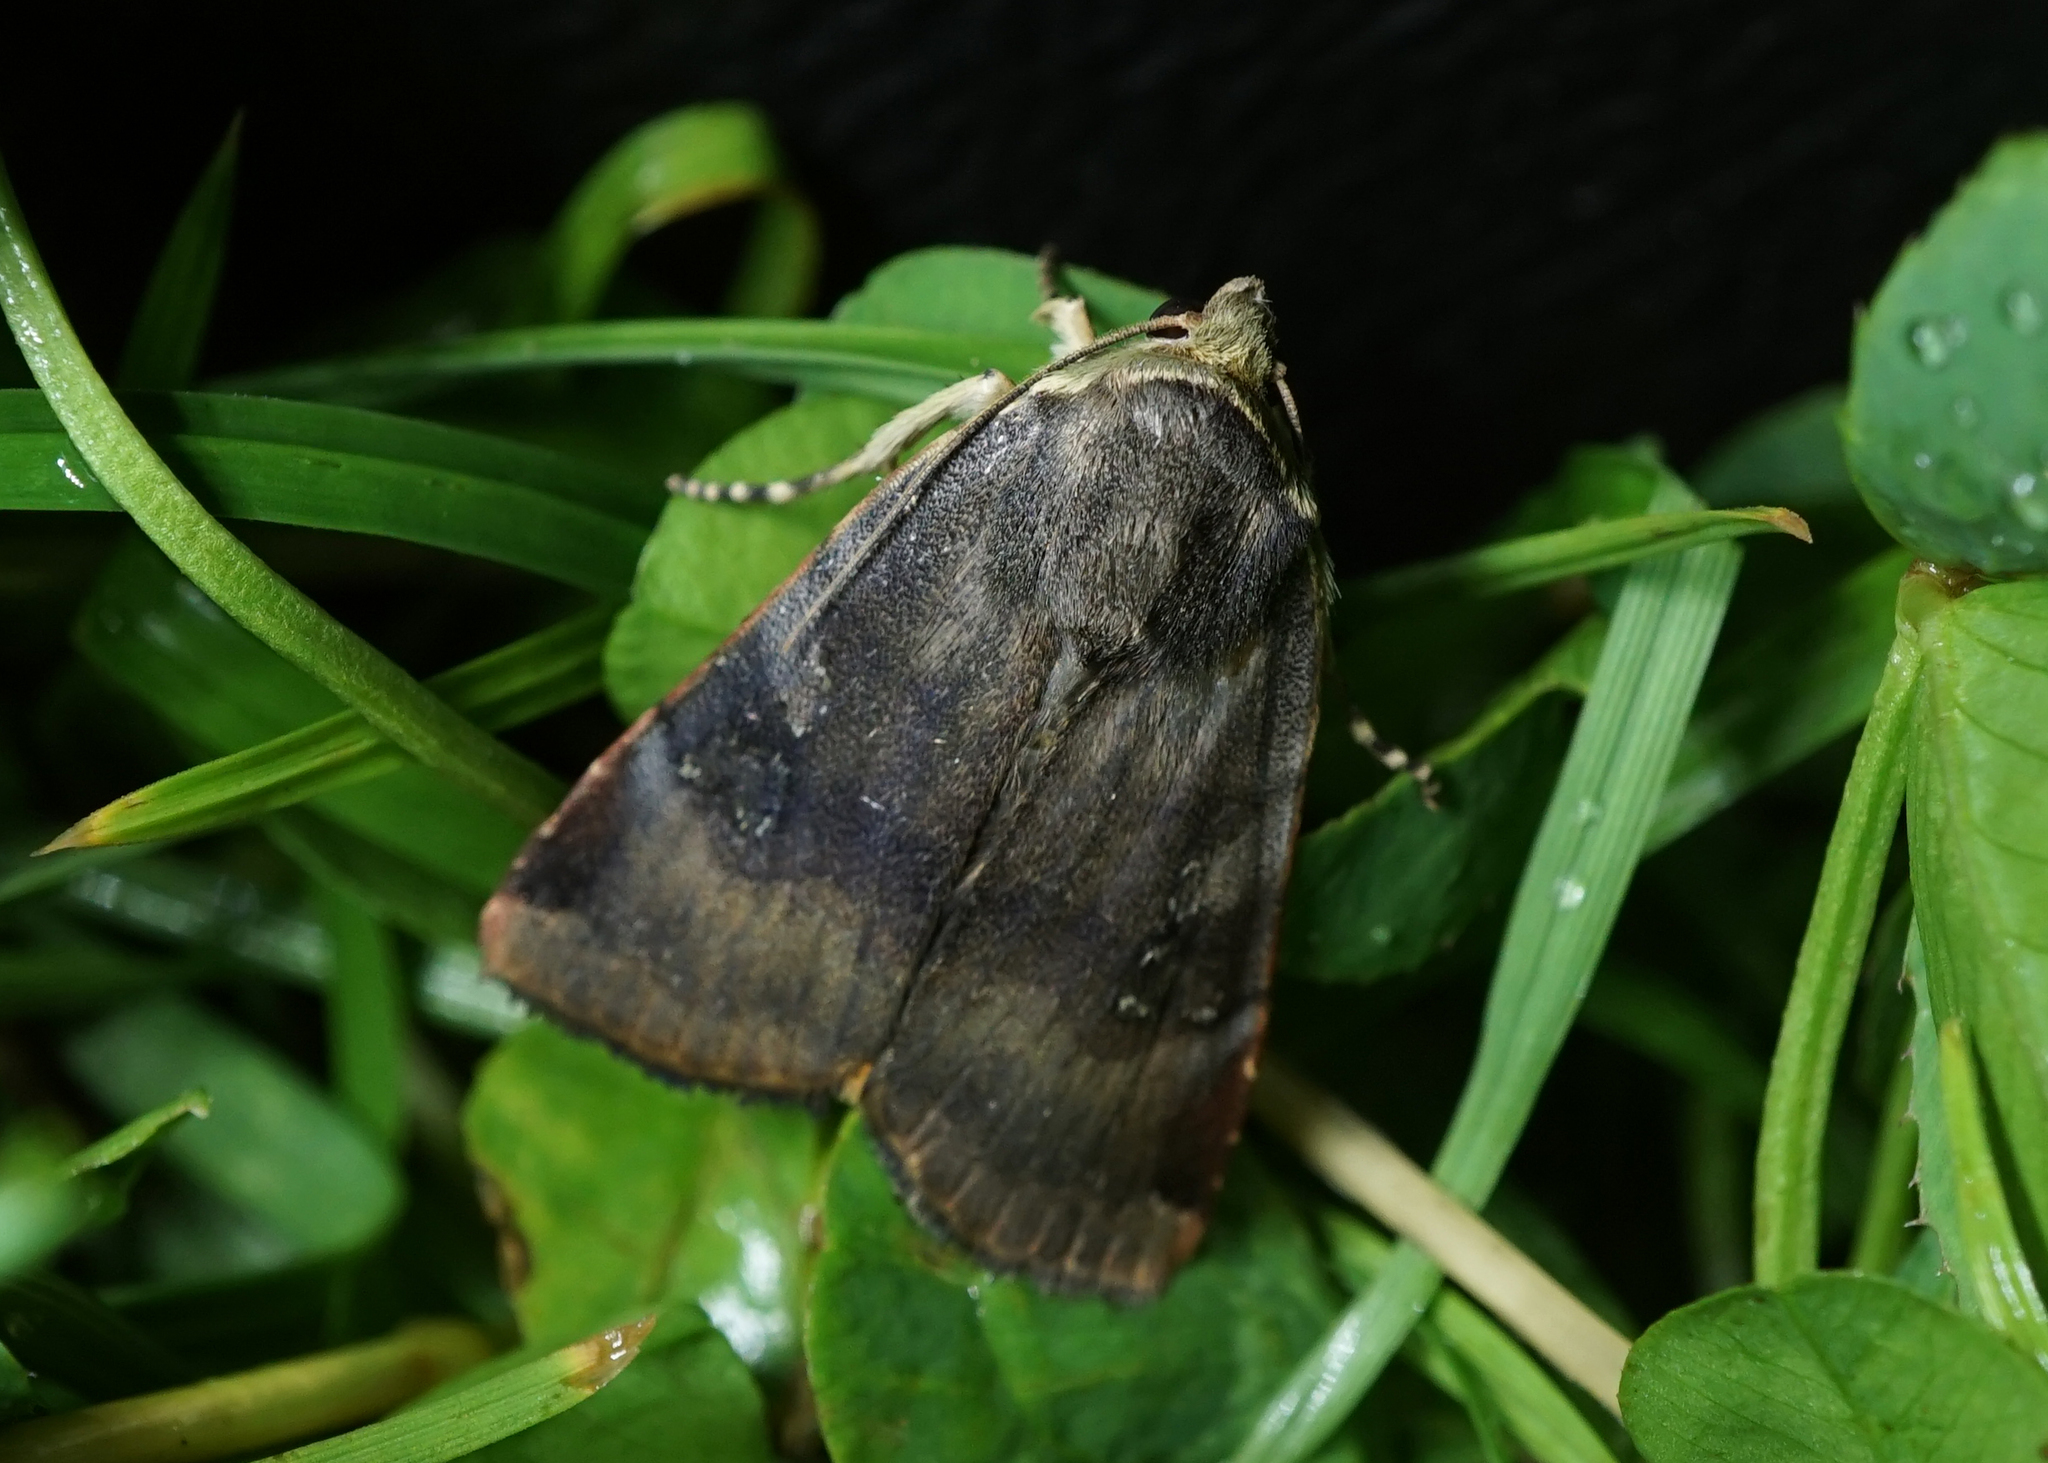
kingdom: Animalia
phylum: Arthropoda
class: Insecta
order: Lepidoptera
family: Noctuidae
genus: Noctua
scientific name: Noctua janthe
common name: Lesser broad-bordered yellow underwing
